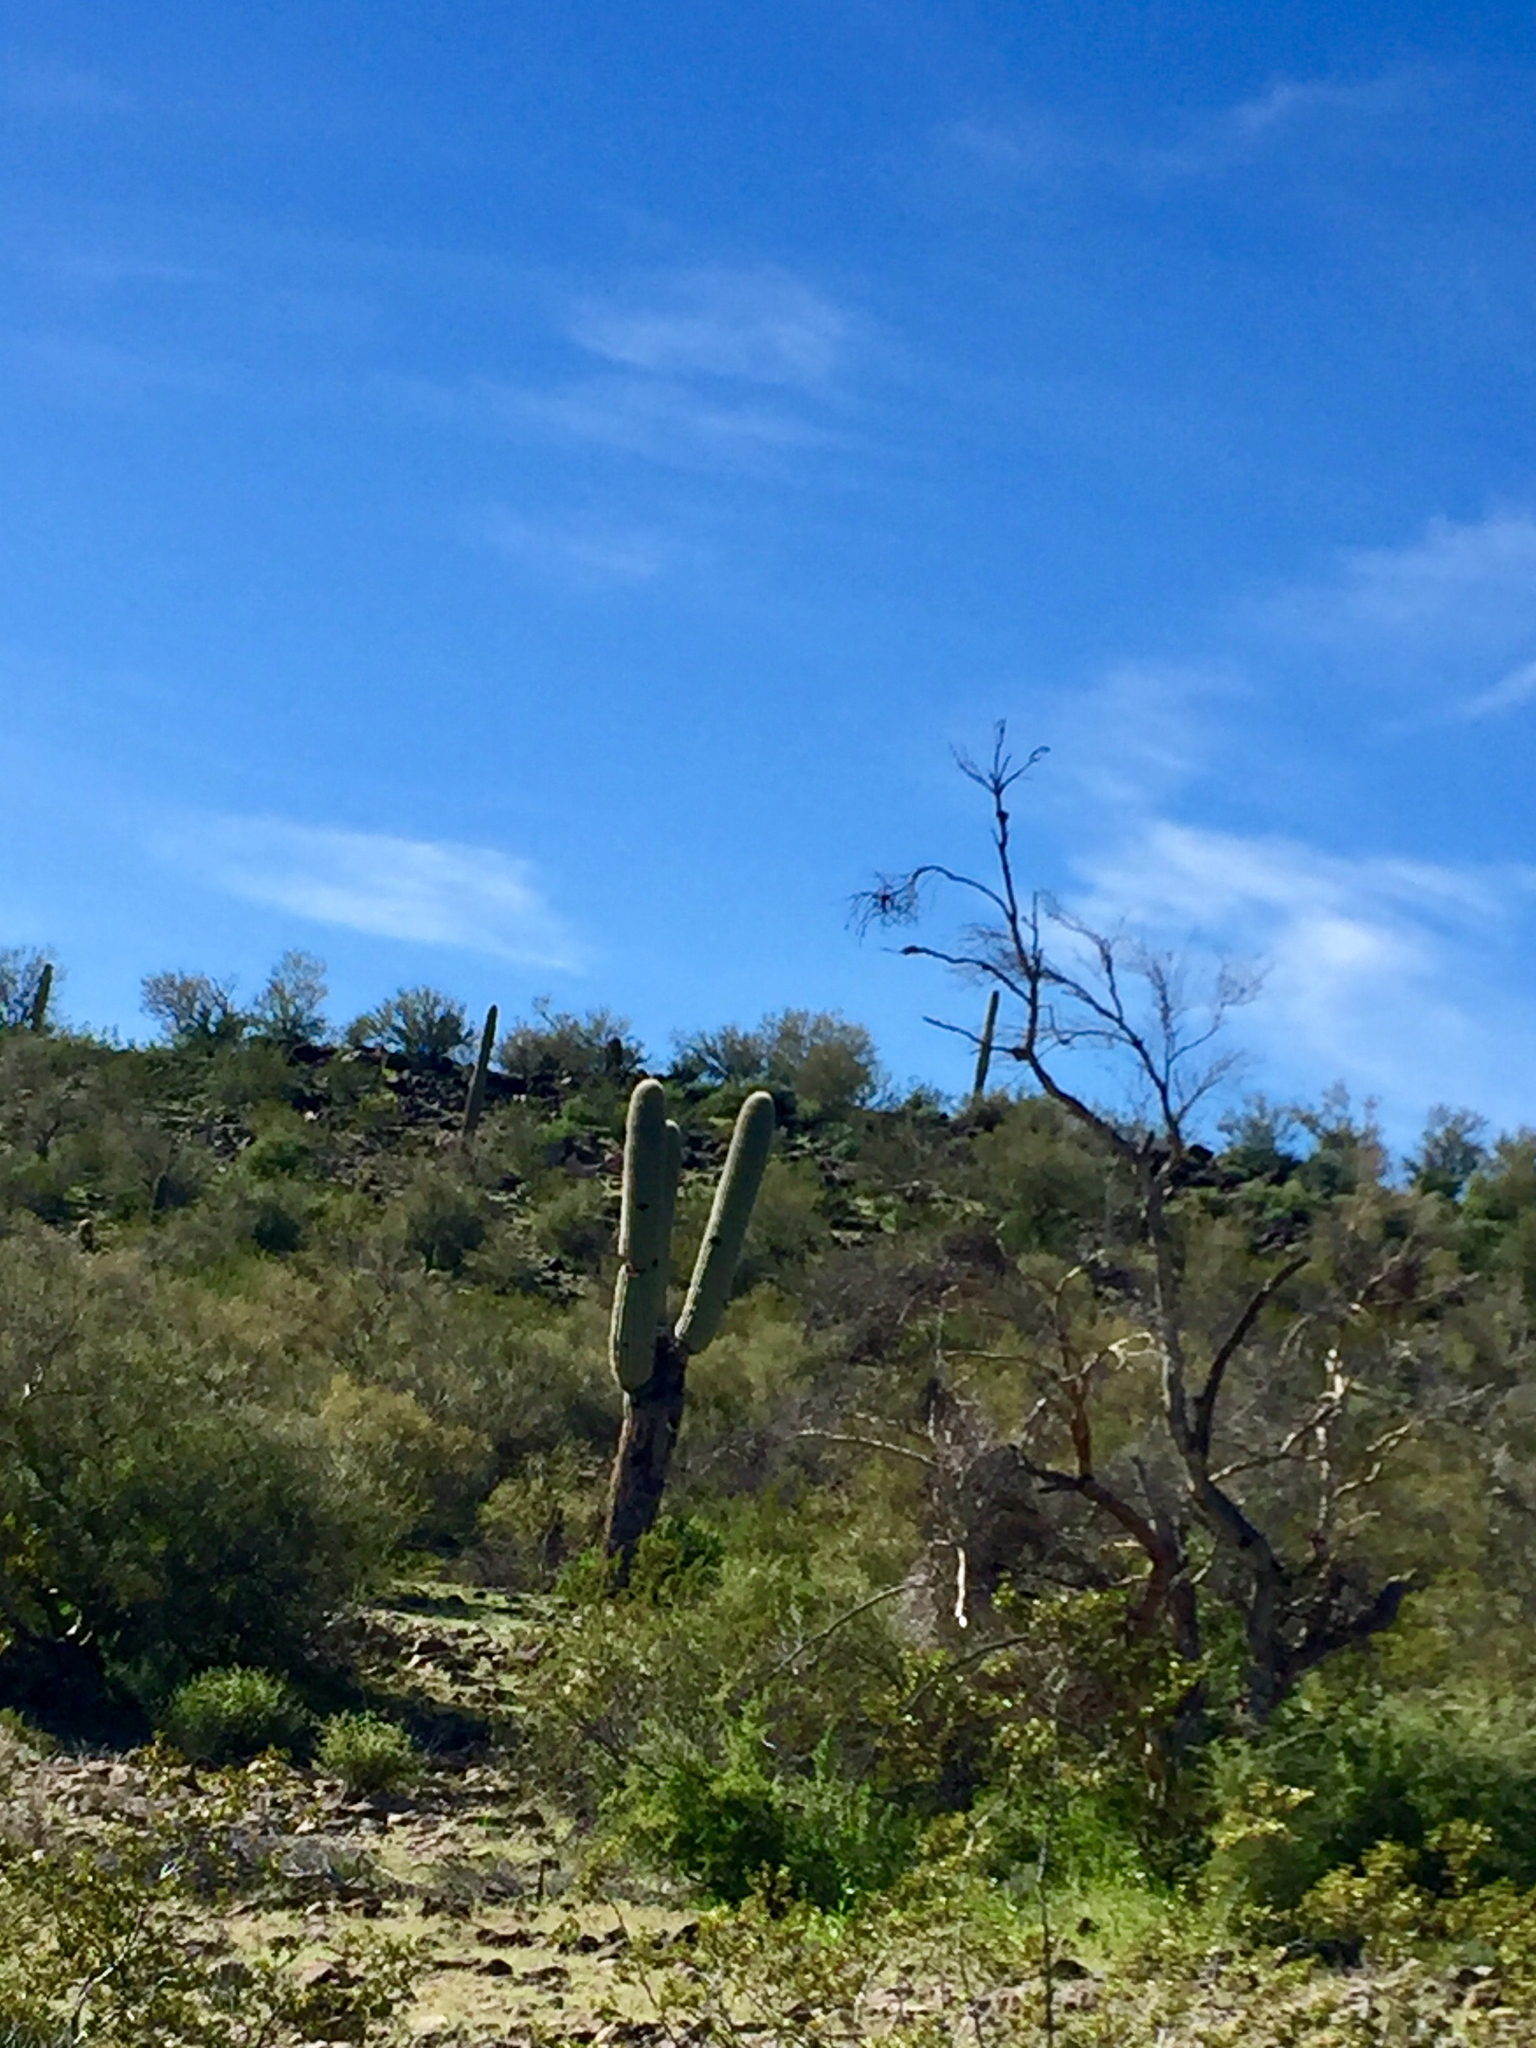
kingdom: Plantae
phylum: Tracheophyta
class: Magnoliopsida
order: Caryophyllales
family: Cactaceae
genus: Carnegiea
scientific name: Carnegiea gigantea
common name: Saguaro
